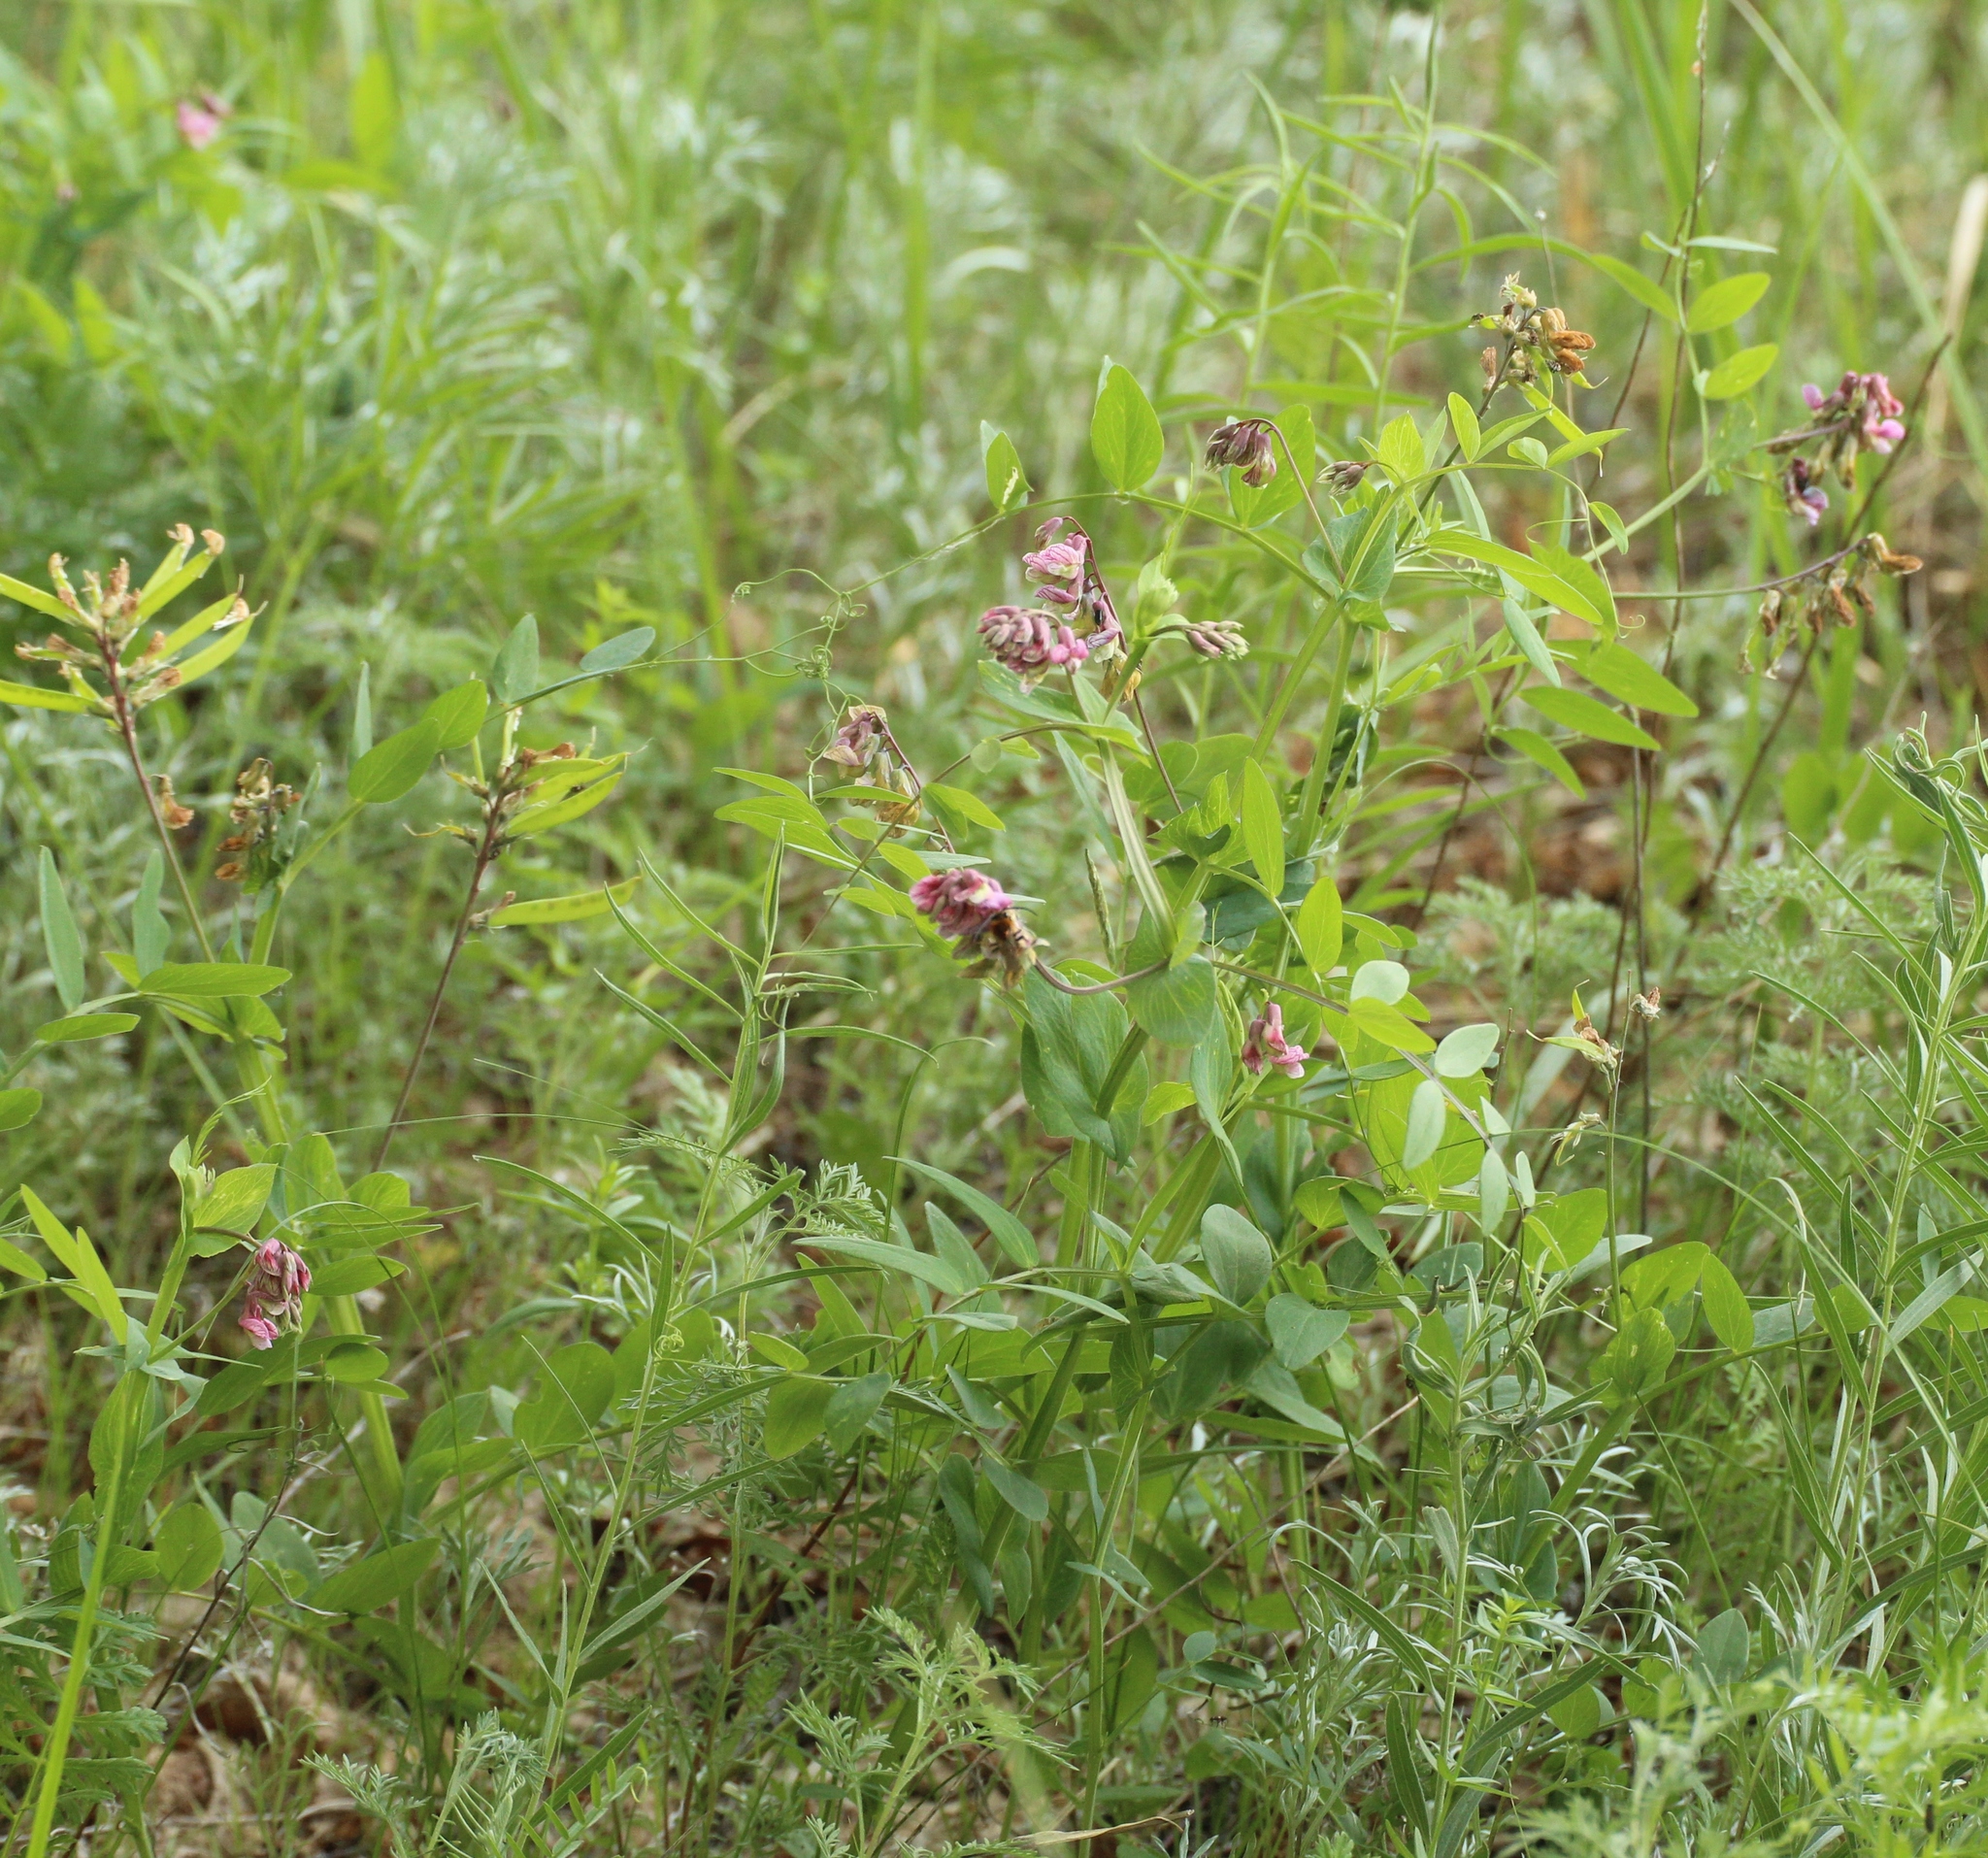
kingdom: Plantae
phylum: Tracheophyta
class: Magnoliopsida
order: Fabales
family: Fabaceae
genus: Lathyrus
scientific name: Lathyrus pisiformis
